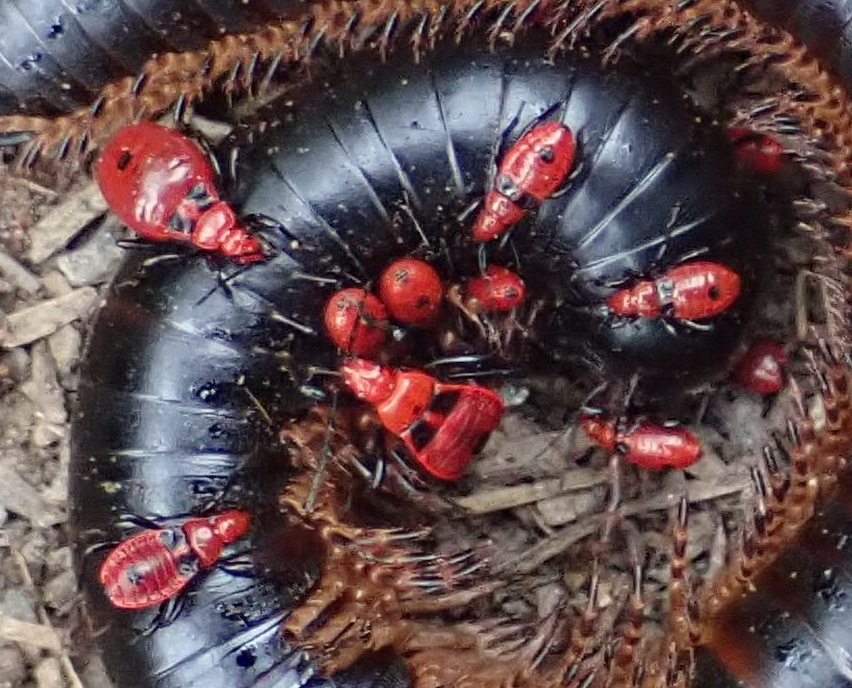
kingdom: Animalia
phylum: Arthropoda
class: Insecta
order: Hemiptera
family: Reduviidae
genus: Ectrichodia
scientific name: Ectrichodia crux
